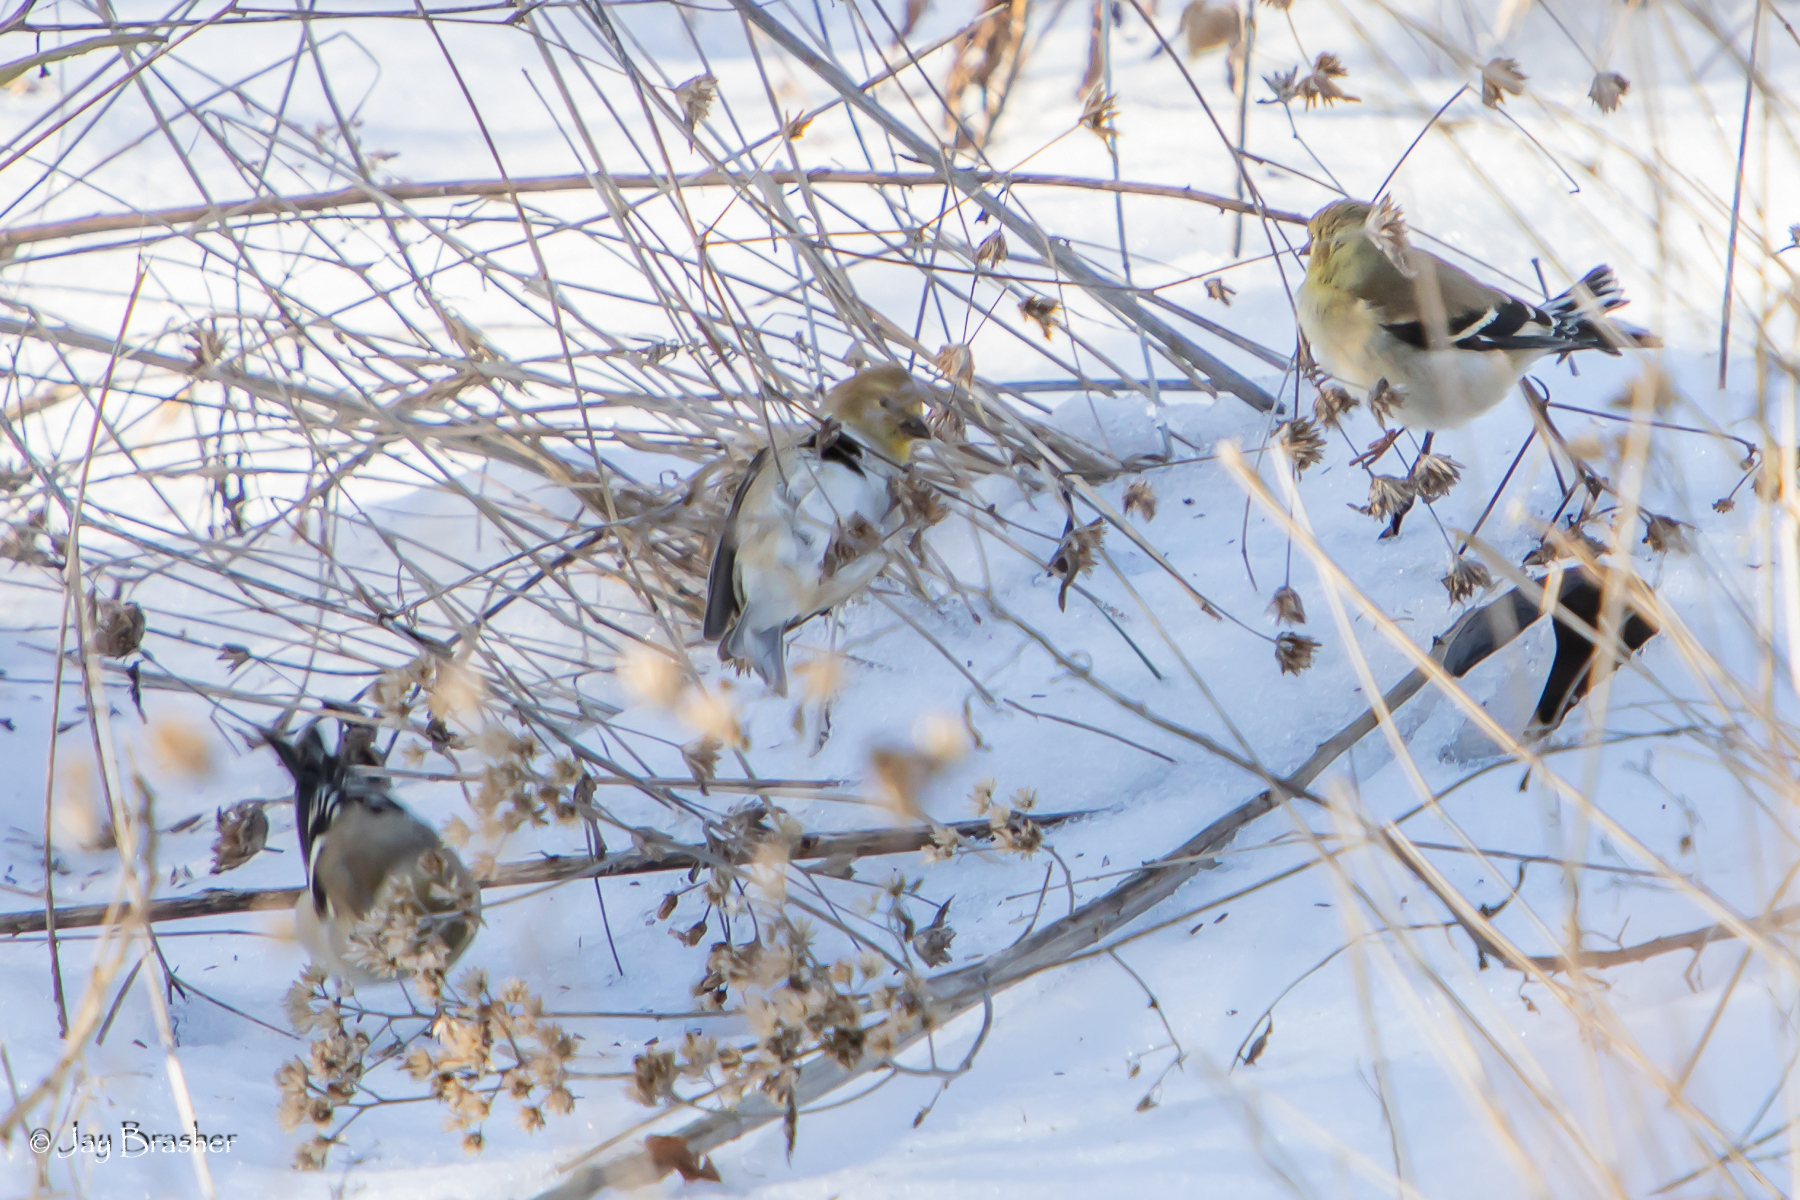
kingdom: Animalia
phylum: Chordata
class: Aves
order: Passeriformes
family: Fringillidae
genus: Spinus
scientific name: Spinus tristis
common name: American goldfinch
